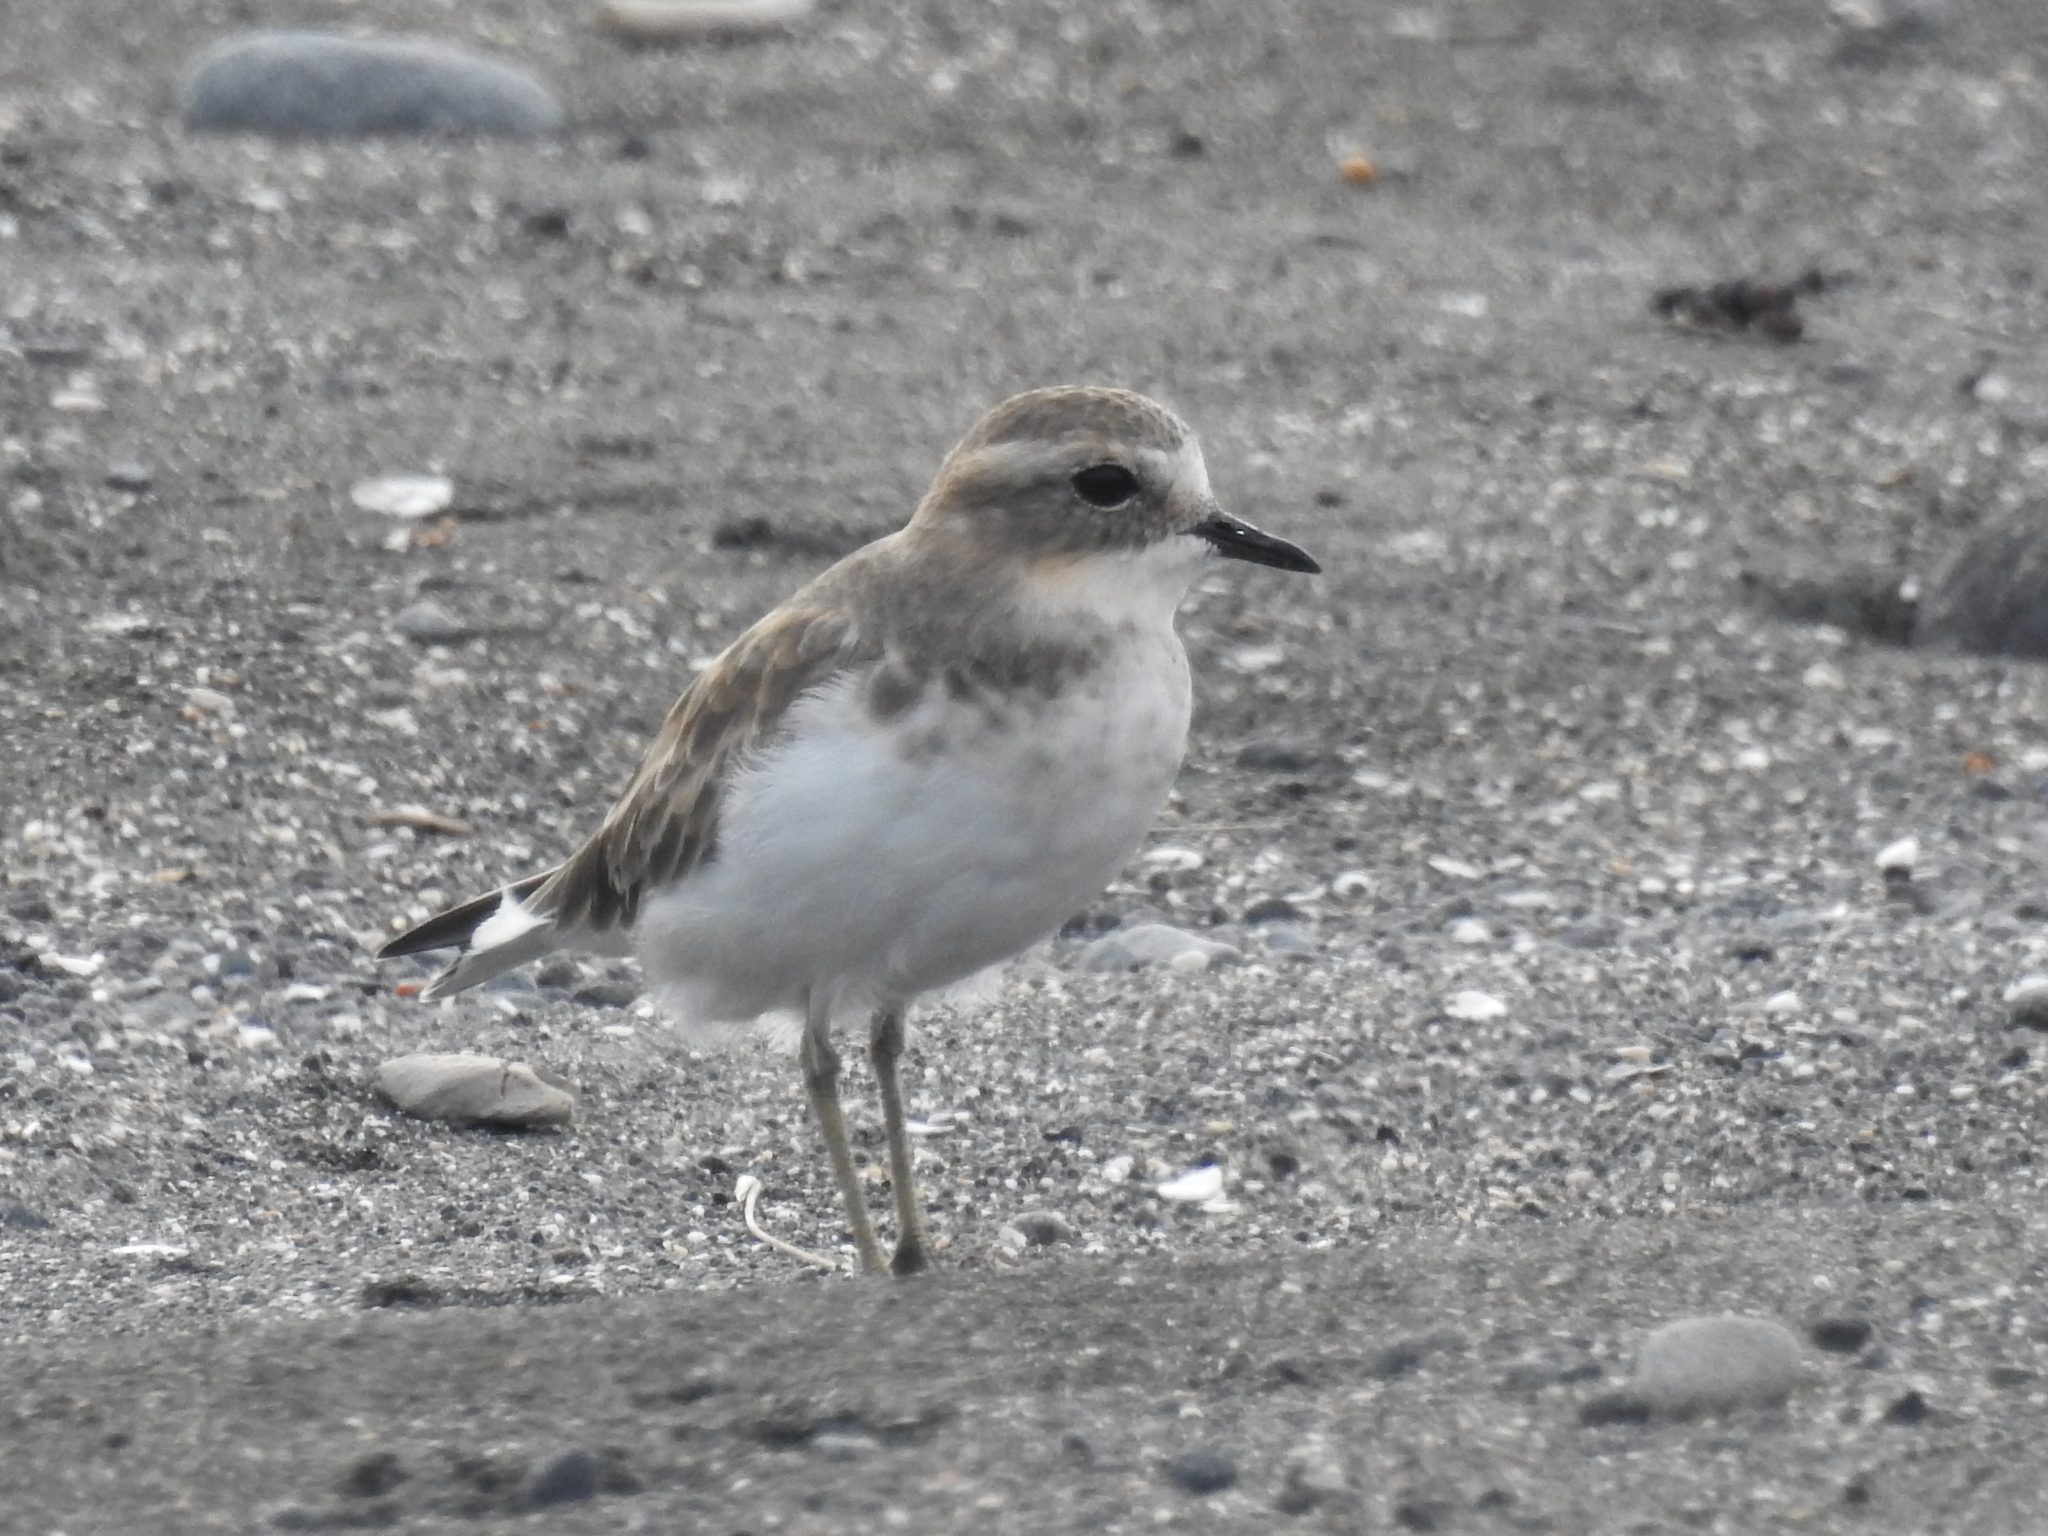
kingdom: Animalia
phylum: Chordata
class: Aves
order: Charadriiformes
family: Charadriidae
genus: Anarhynchus
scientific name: Anarhynchus
